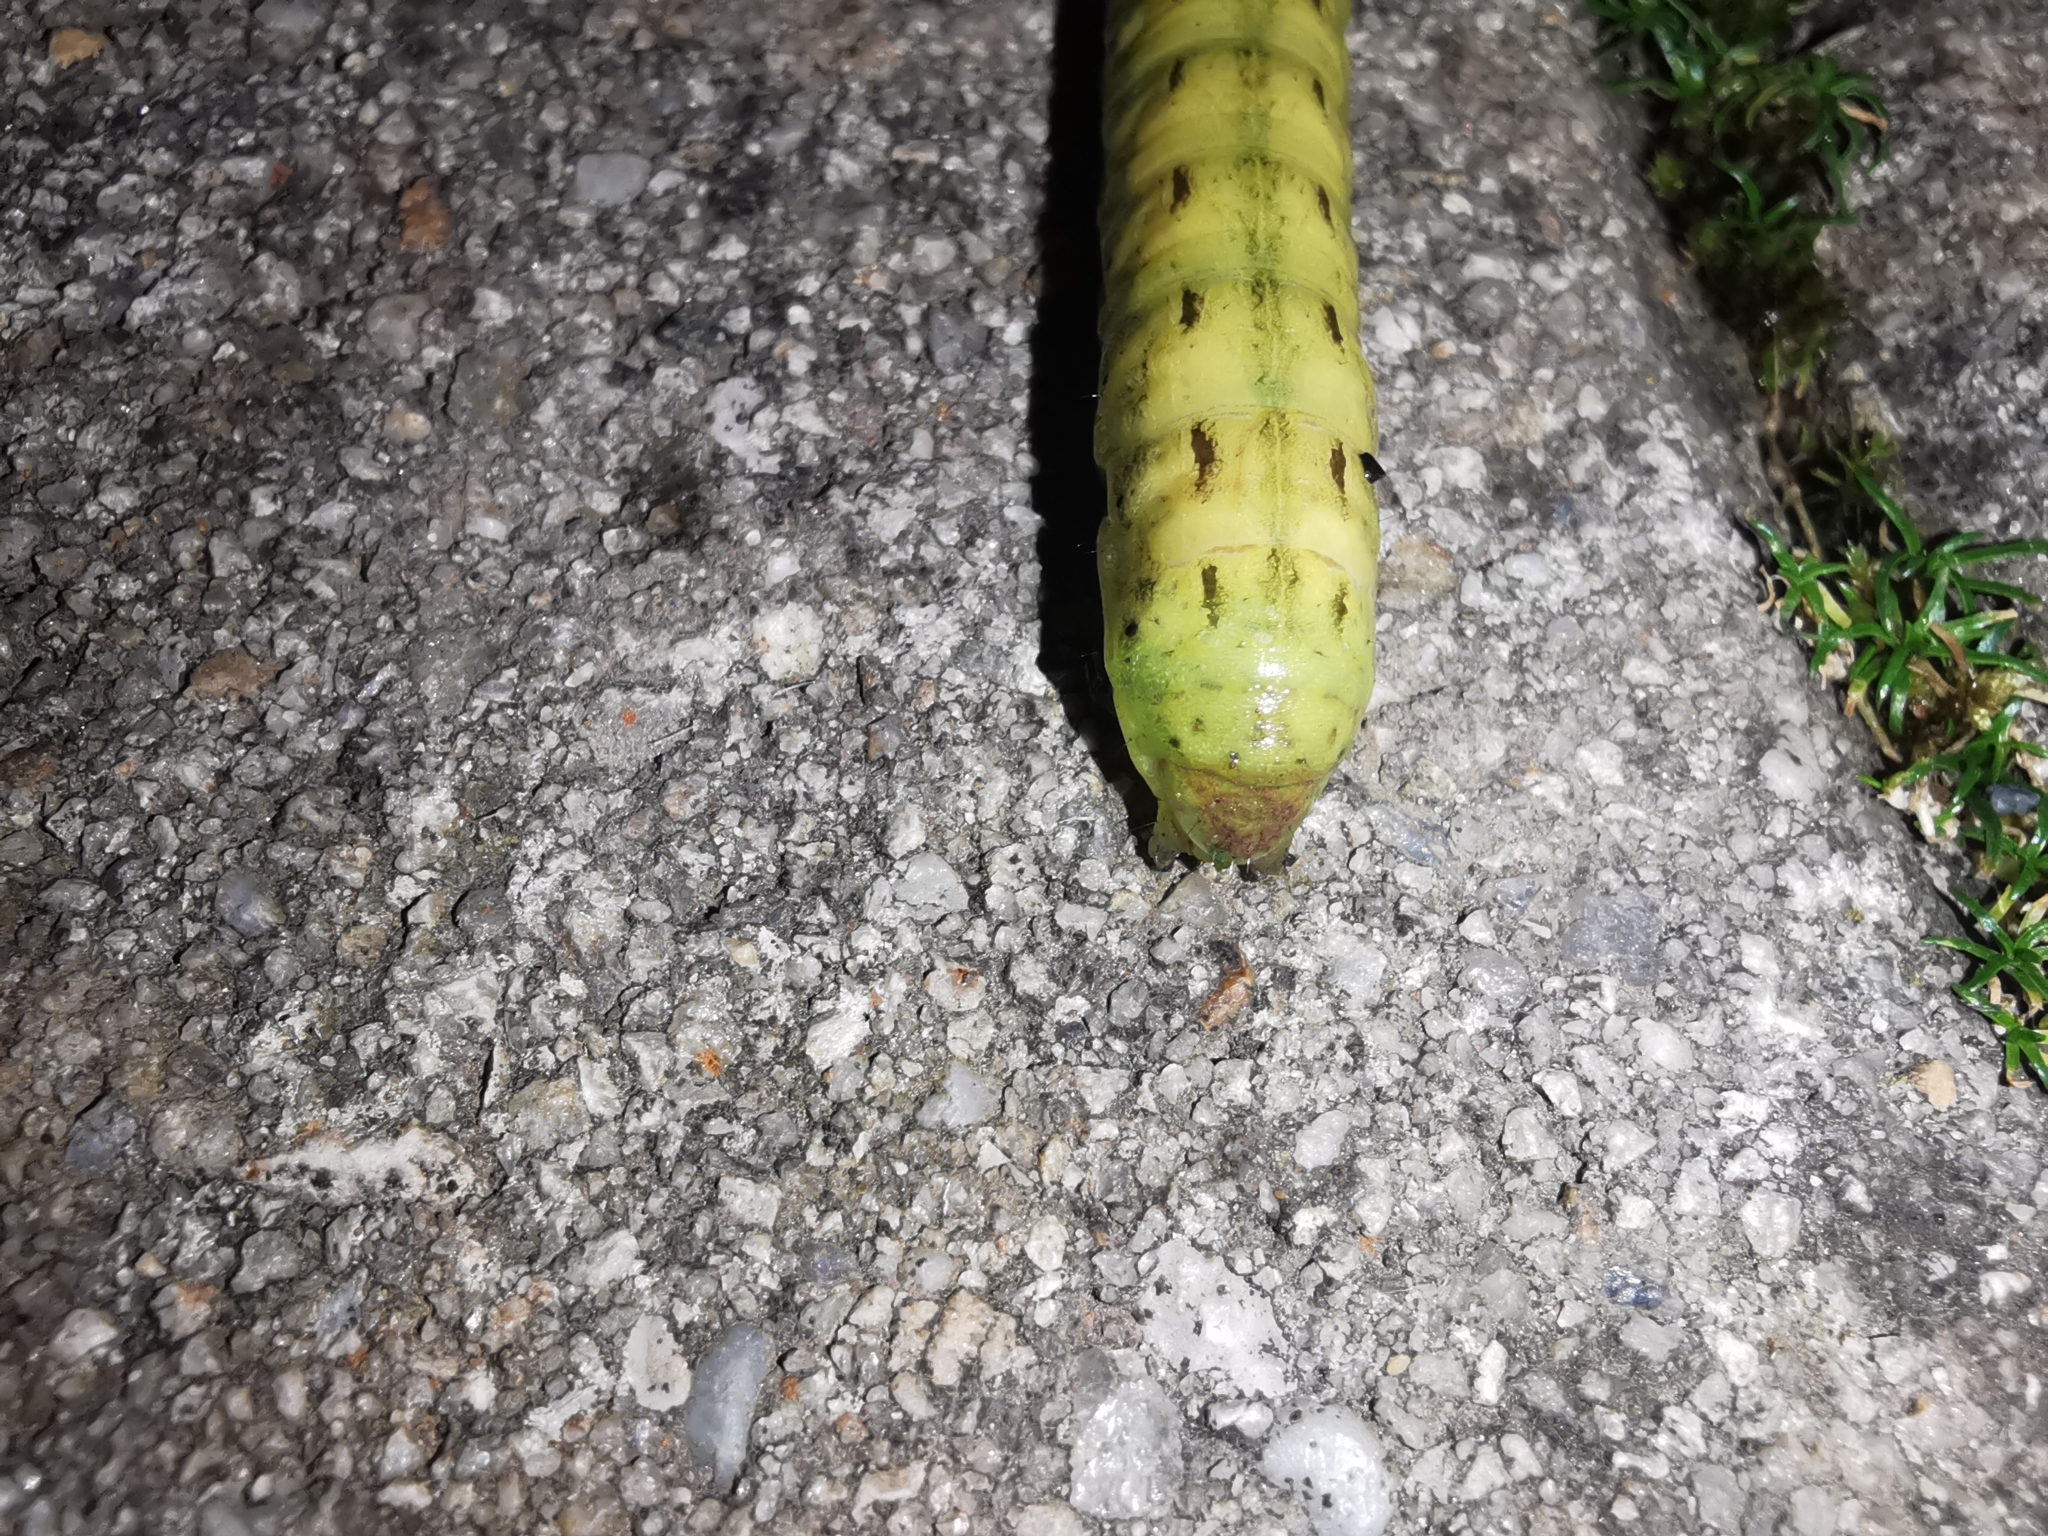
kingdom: Animalia
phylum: Arthropoda
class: Insecta
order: Lepidoptera
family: Noctuidae
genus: Noctua
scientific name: Noctua pronuba
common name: Large yellow underwing
